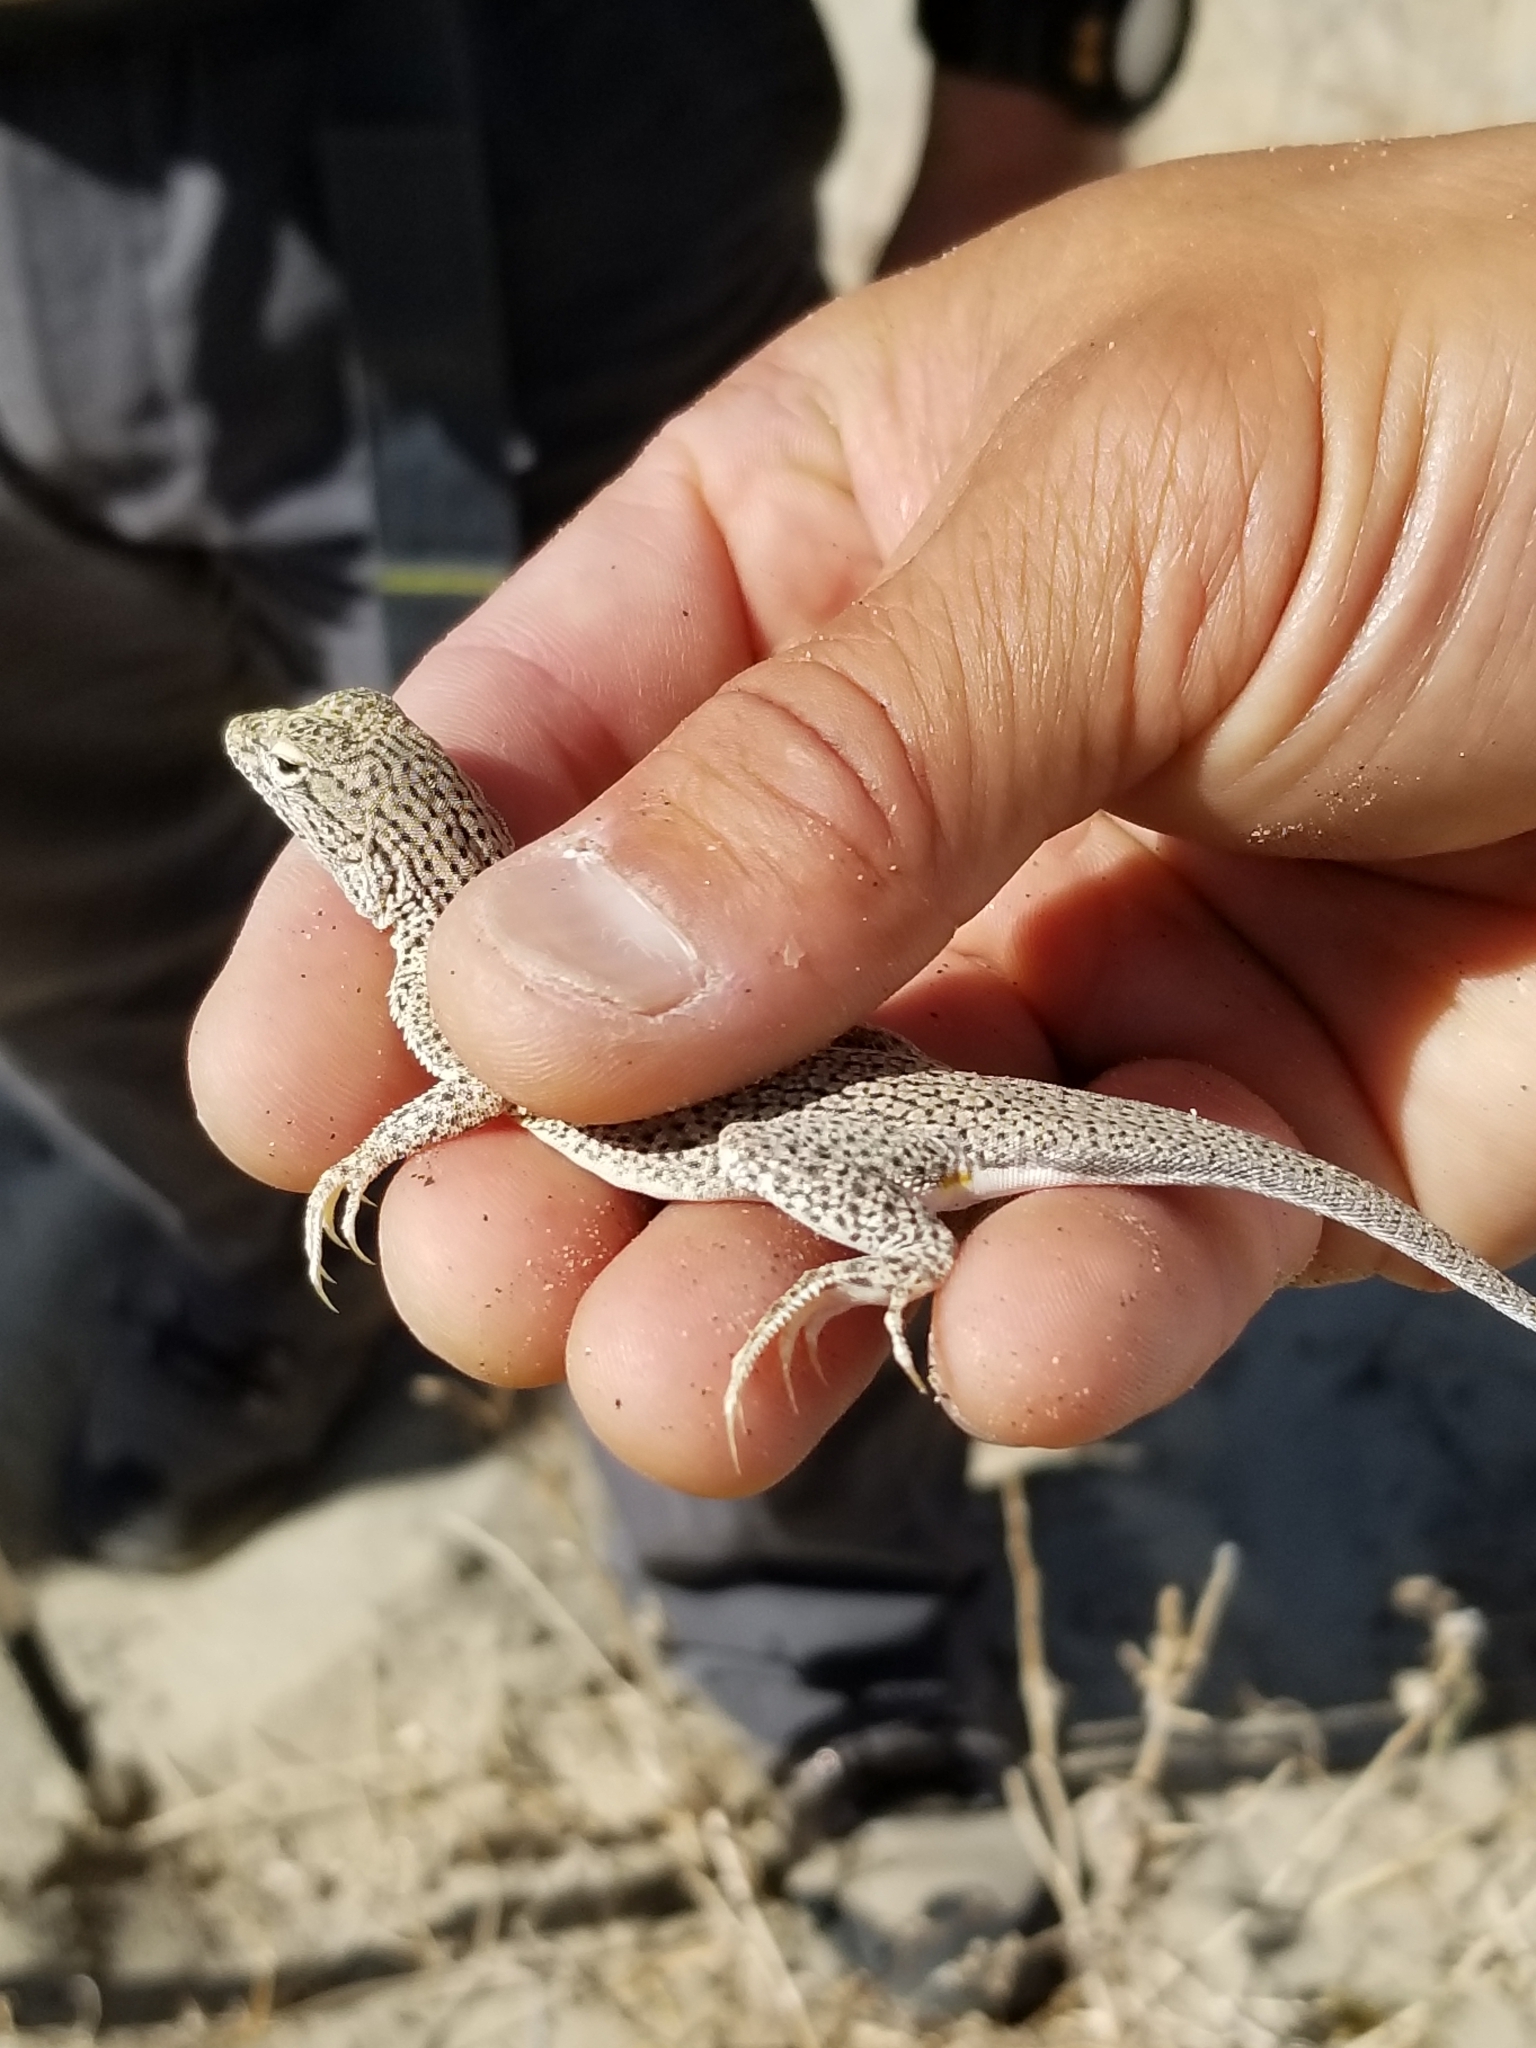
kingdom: Animalia
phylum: Chordata
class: Squamata
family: Phrynosomatidae
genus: Uma
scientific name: Uma inornata
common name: Coachella valley fringe-toed lizard
